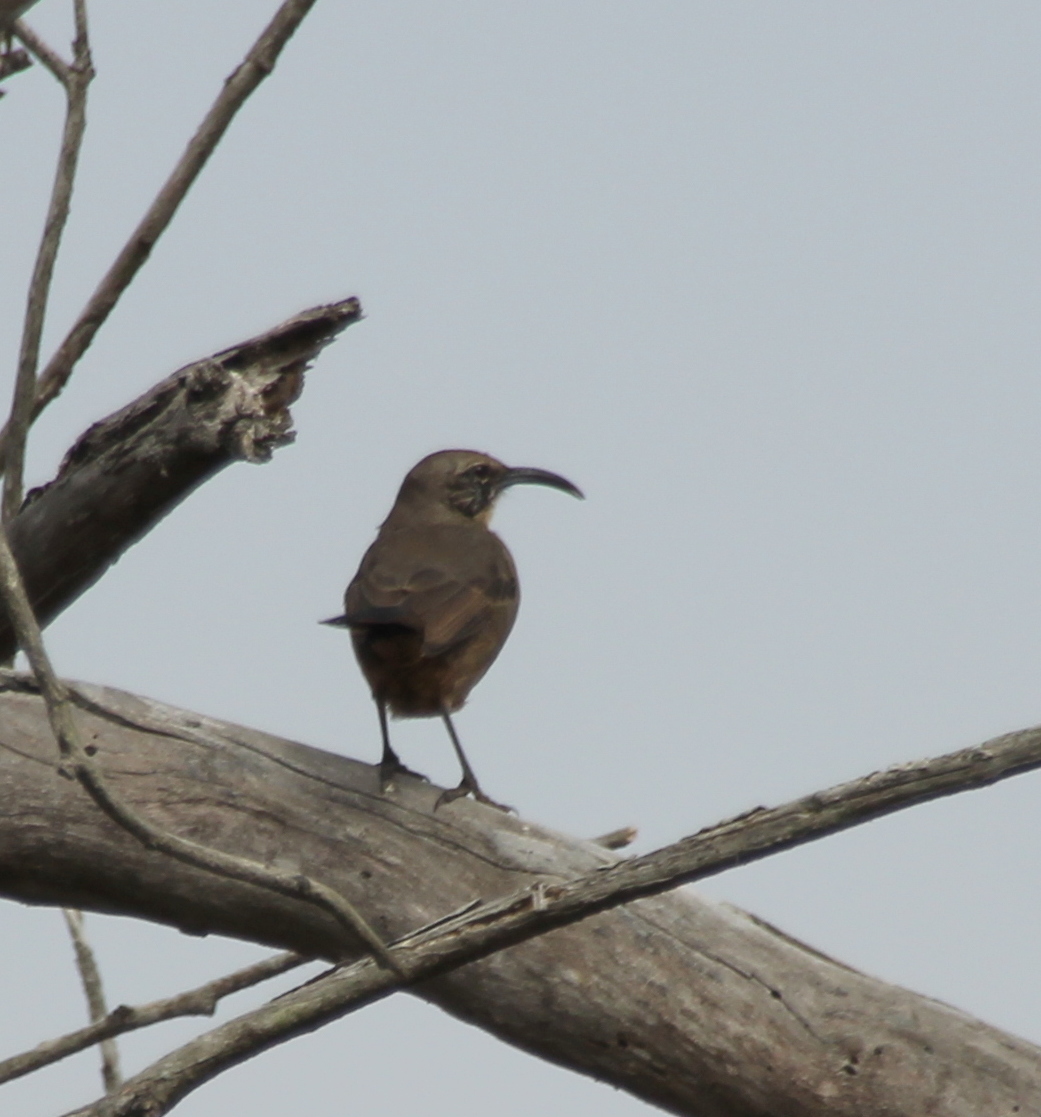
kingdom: Animalia
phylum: Chordata
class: Aves
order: Passeriformes
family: Mimidae
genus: Toxostoma
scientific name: Toxostoma redivivum
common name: California thrasher
